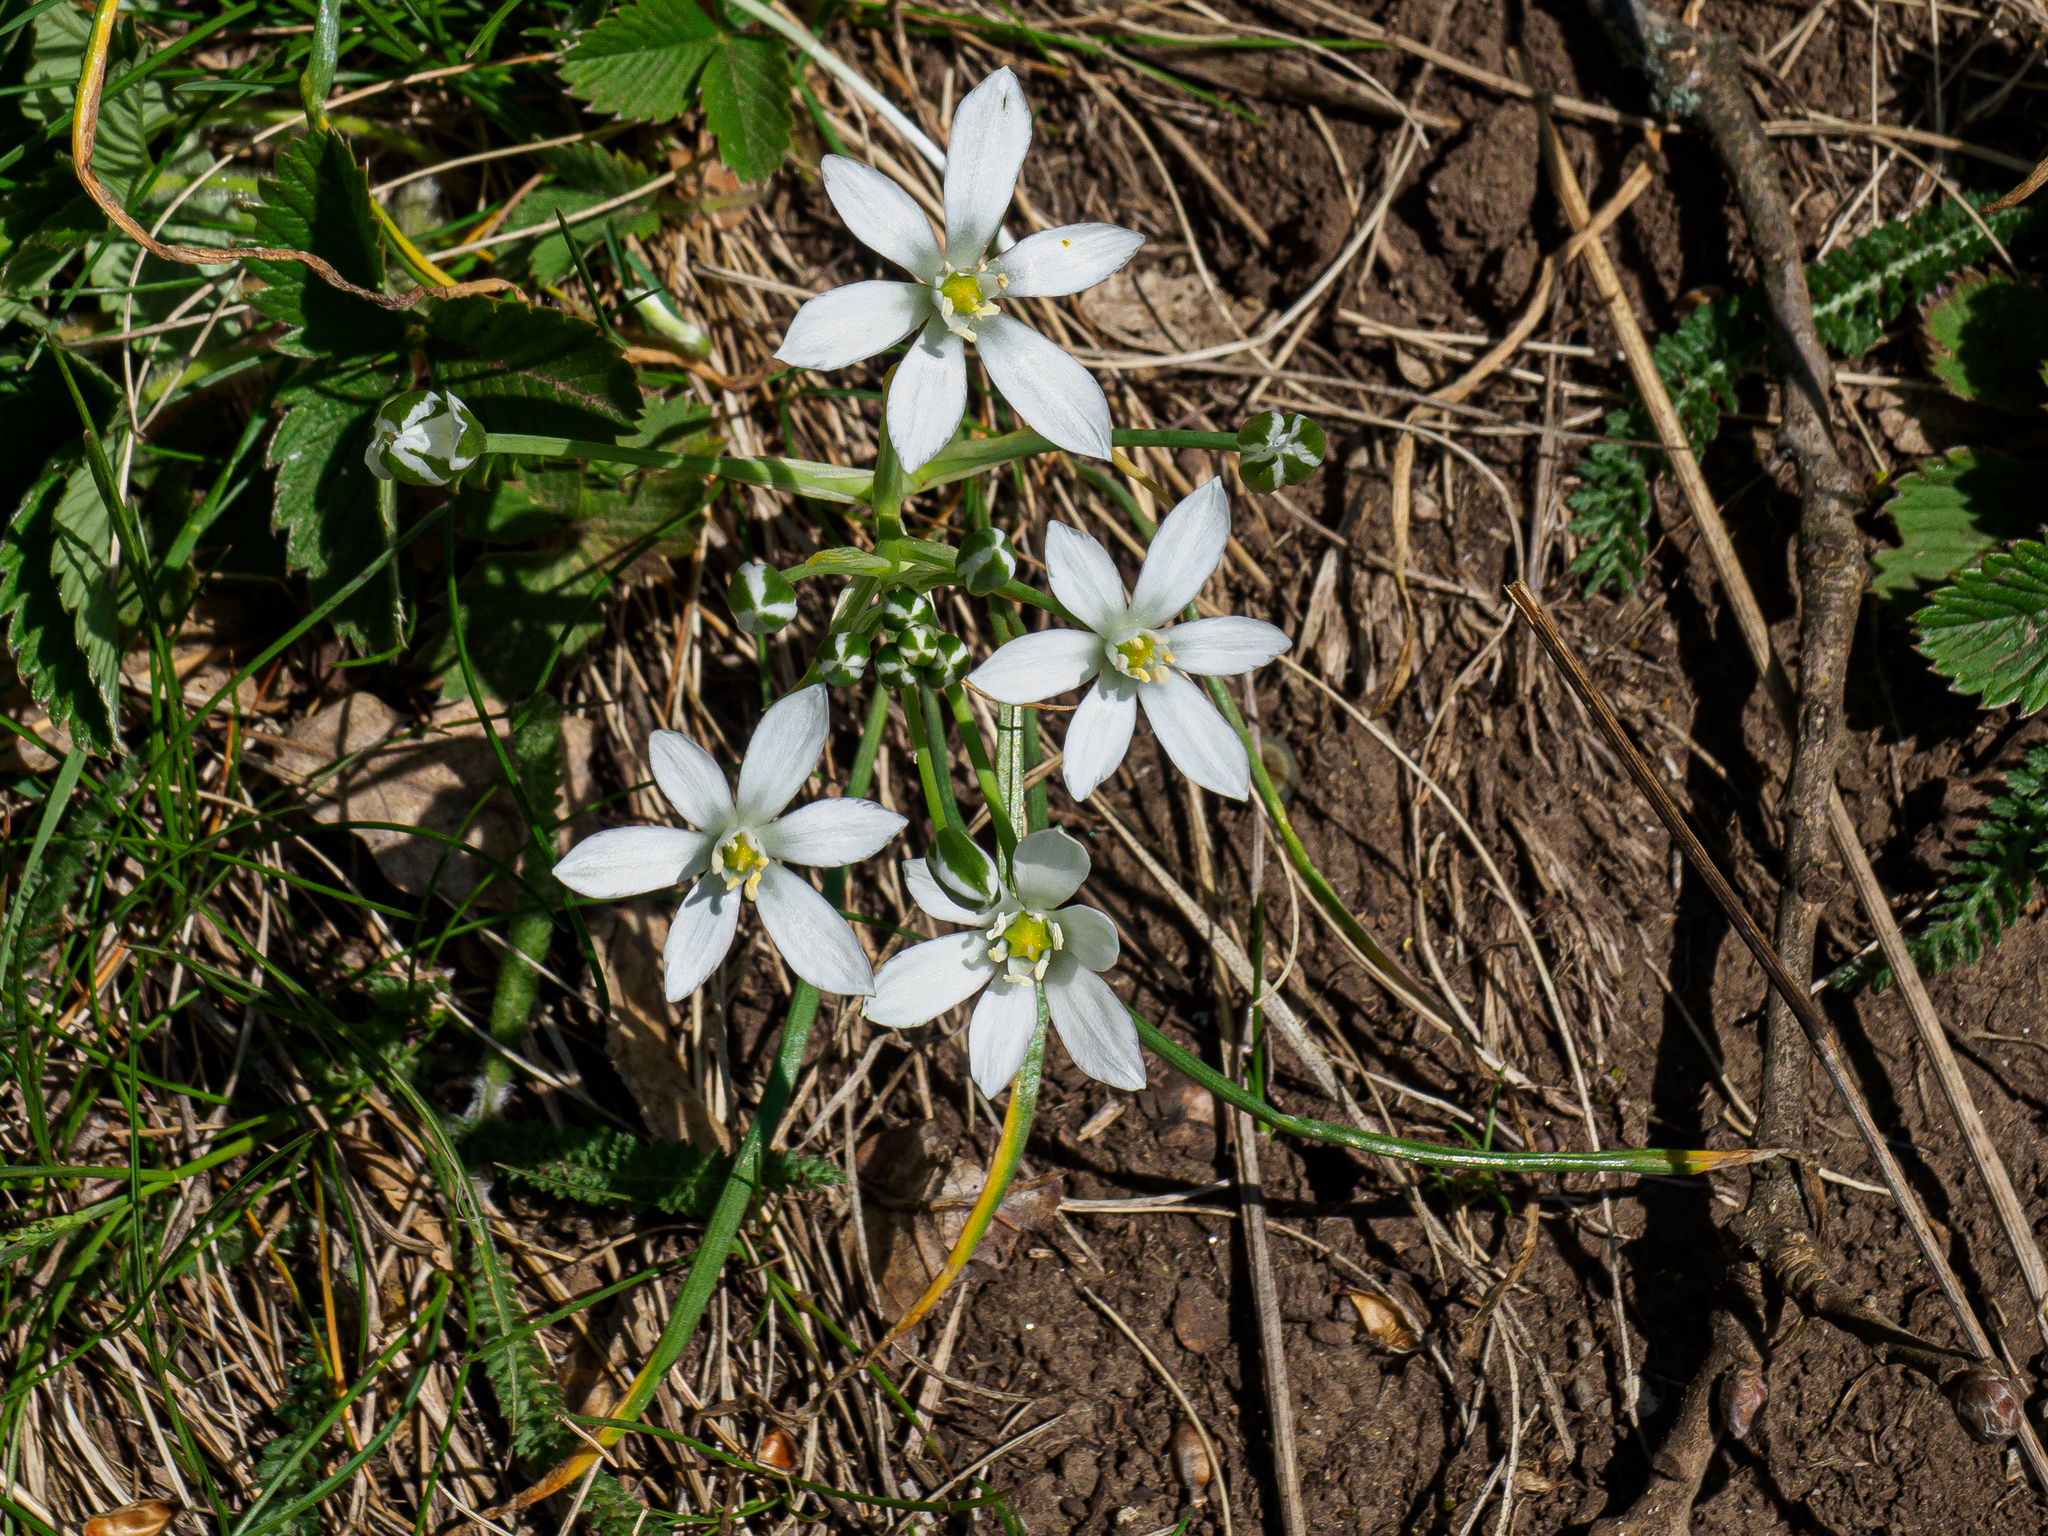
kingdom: Plantae
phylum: Tracheophyta
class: Liliopsida
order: Asparagales
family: Asparagaceae
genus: Ornithogalum
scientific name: Ornithogalum orthophyllum
